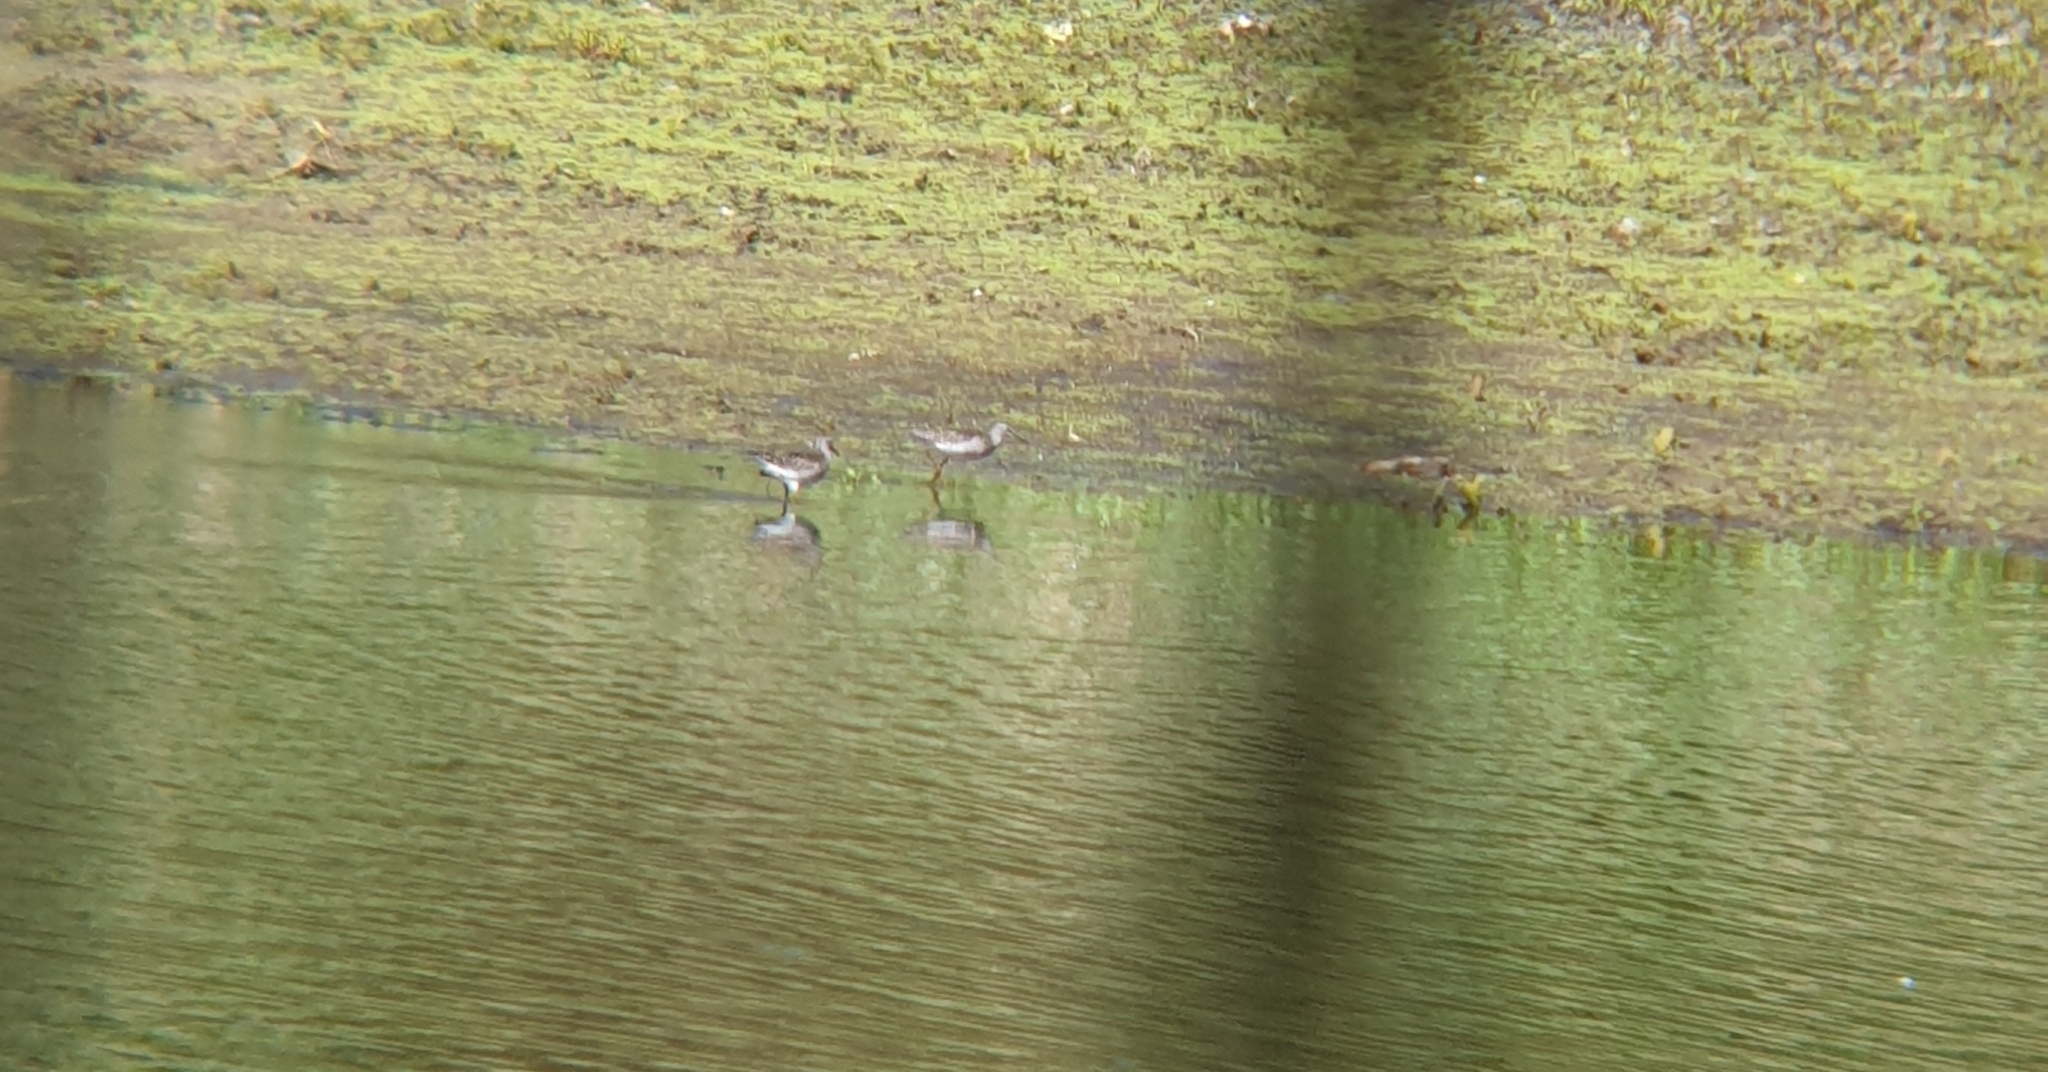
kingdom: Animalia
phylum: Chordata
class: Aves
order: Charadriiformes
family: Scolopacidae
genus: Tringa
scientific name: Tringa glareola
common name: Wood sandpiper
